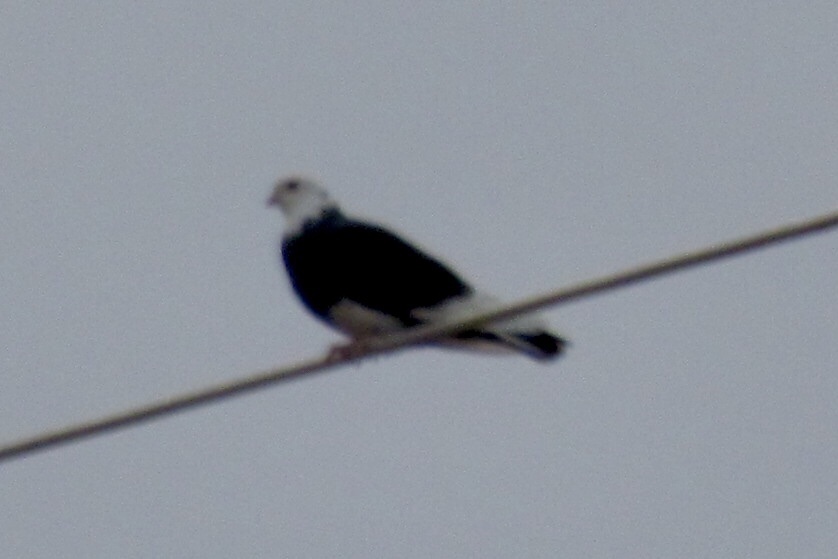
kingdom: Animalia
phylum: Chordata
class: Aves
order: Columbiformes
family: Columbidae
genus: Columba
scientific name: Columba livia
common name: Rock pigeon
